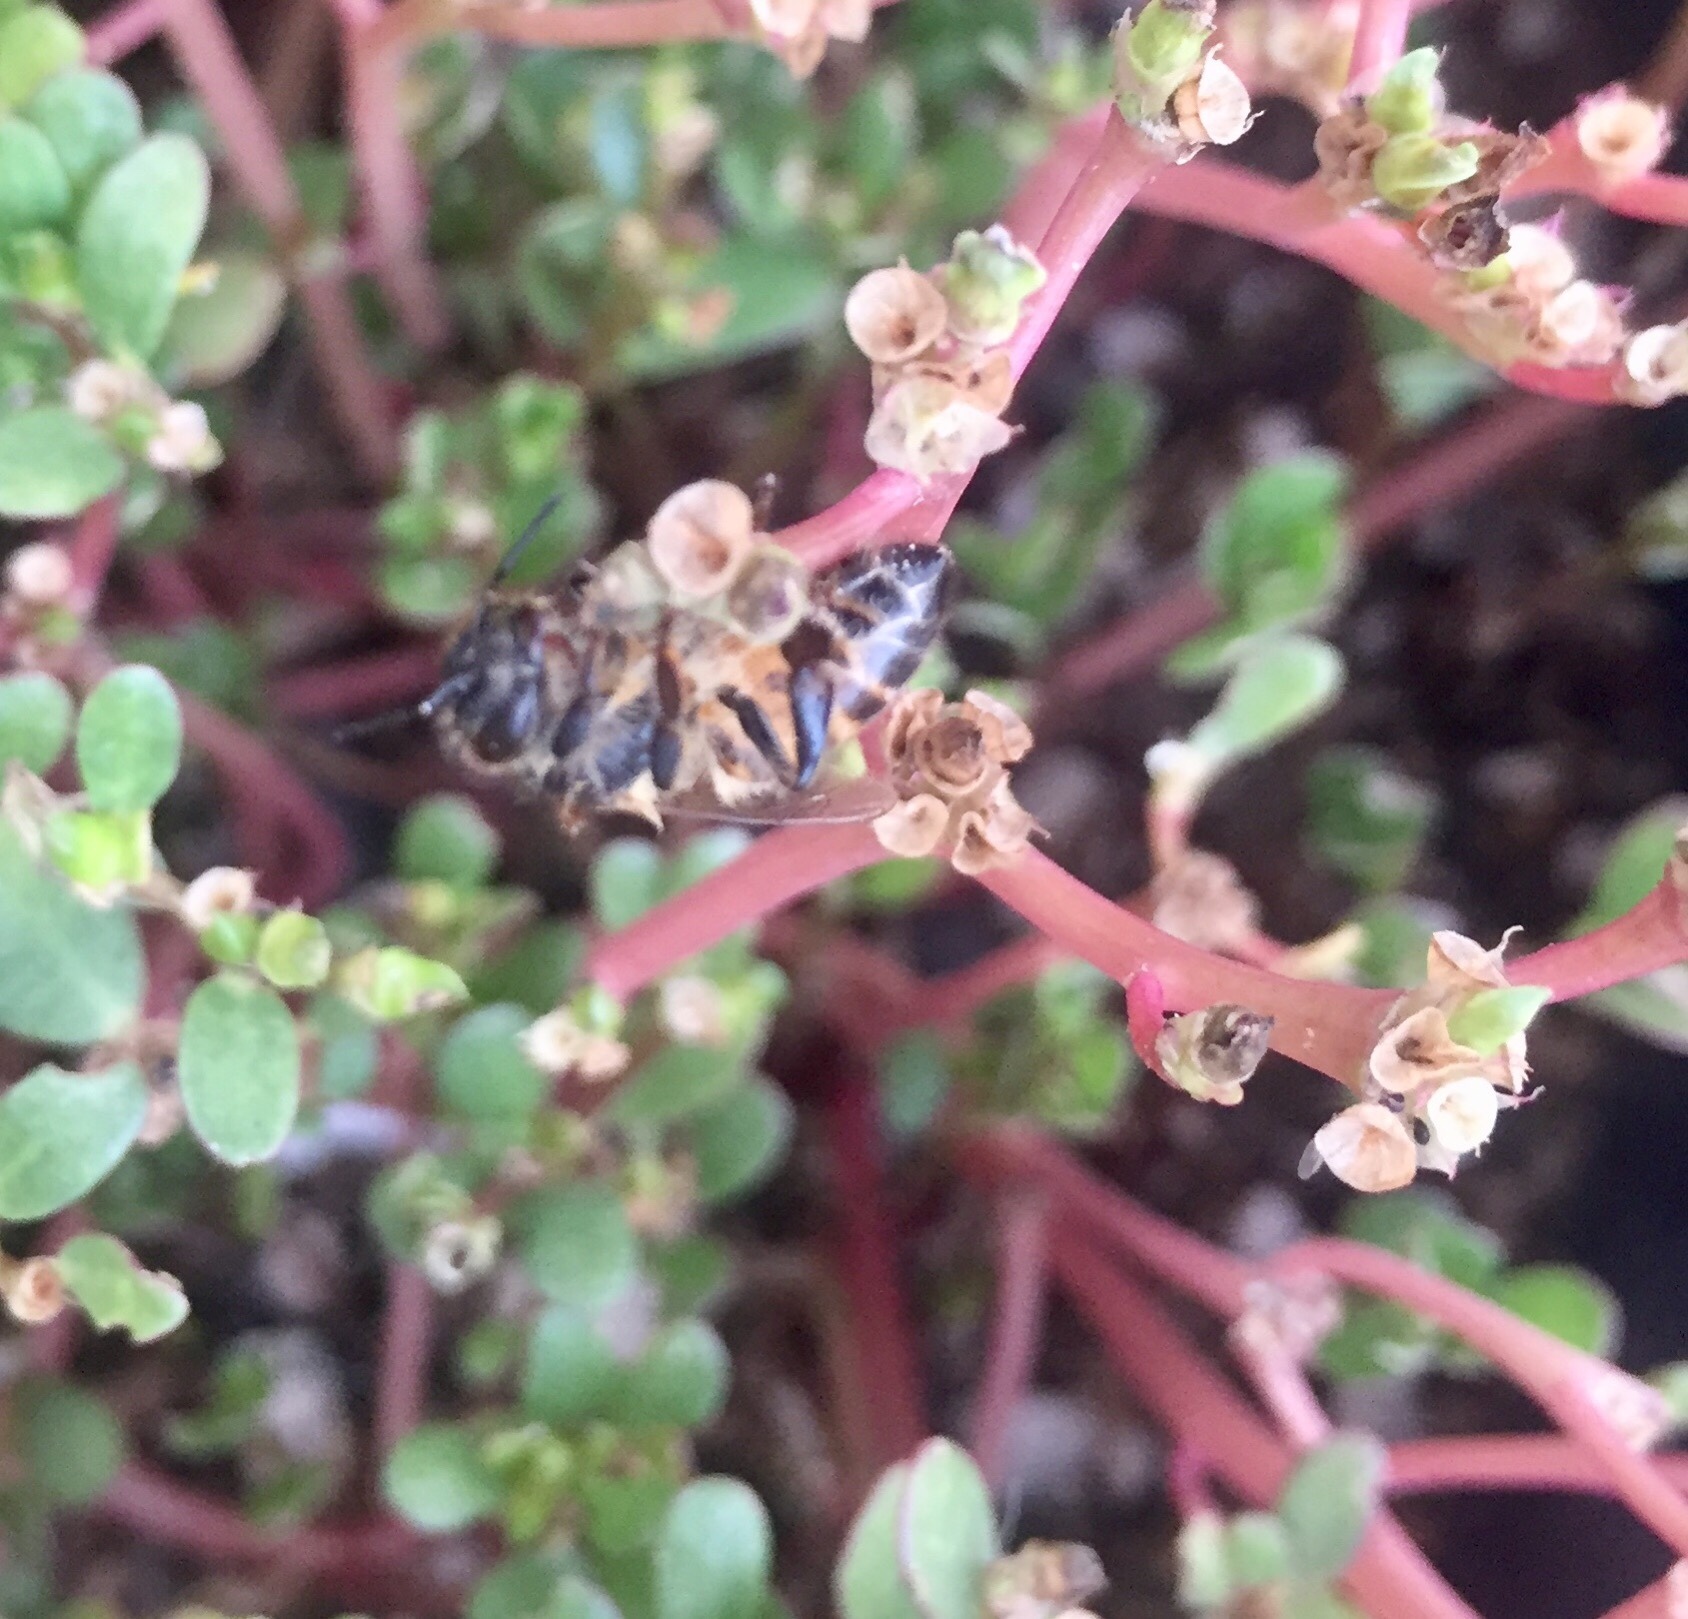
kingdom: Animalia
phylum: Arthropoda
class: Insecta
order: Hymenoptera
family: Apidae
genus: Apis
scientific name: Apis mellifera
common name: Honey bee
